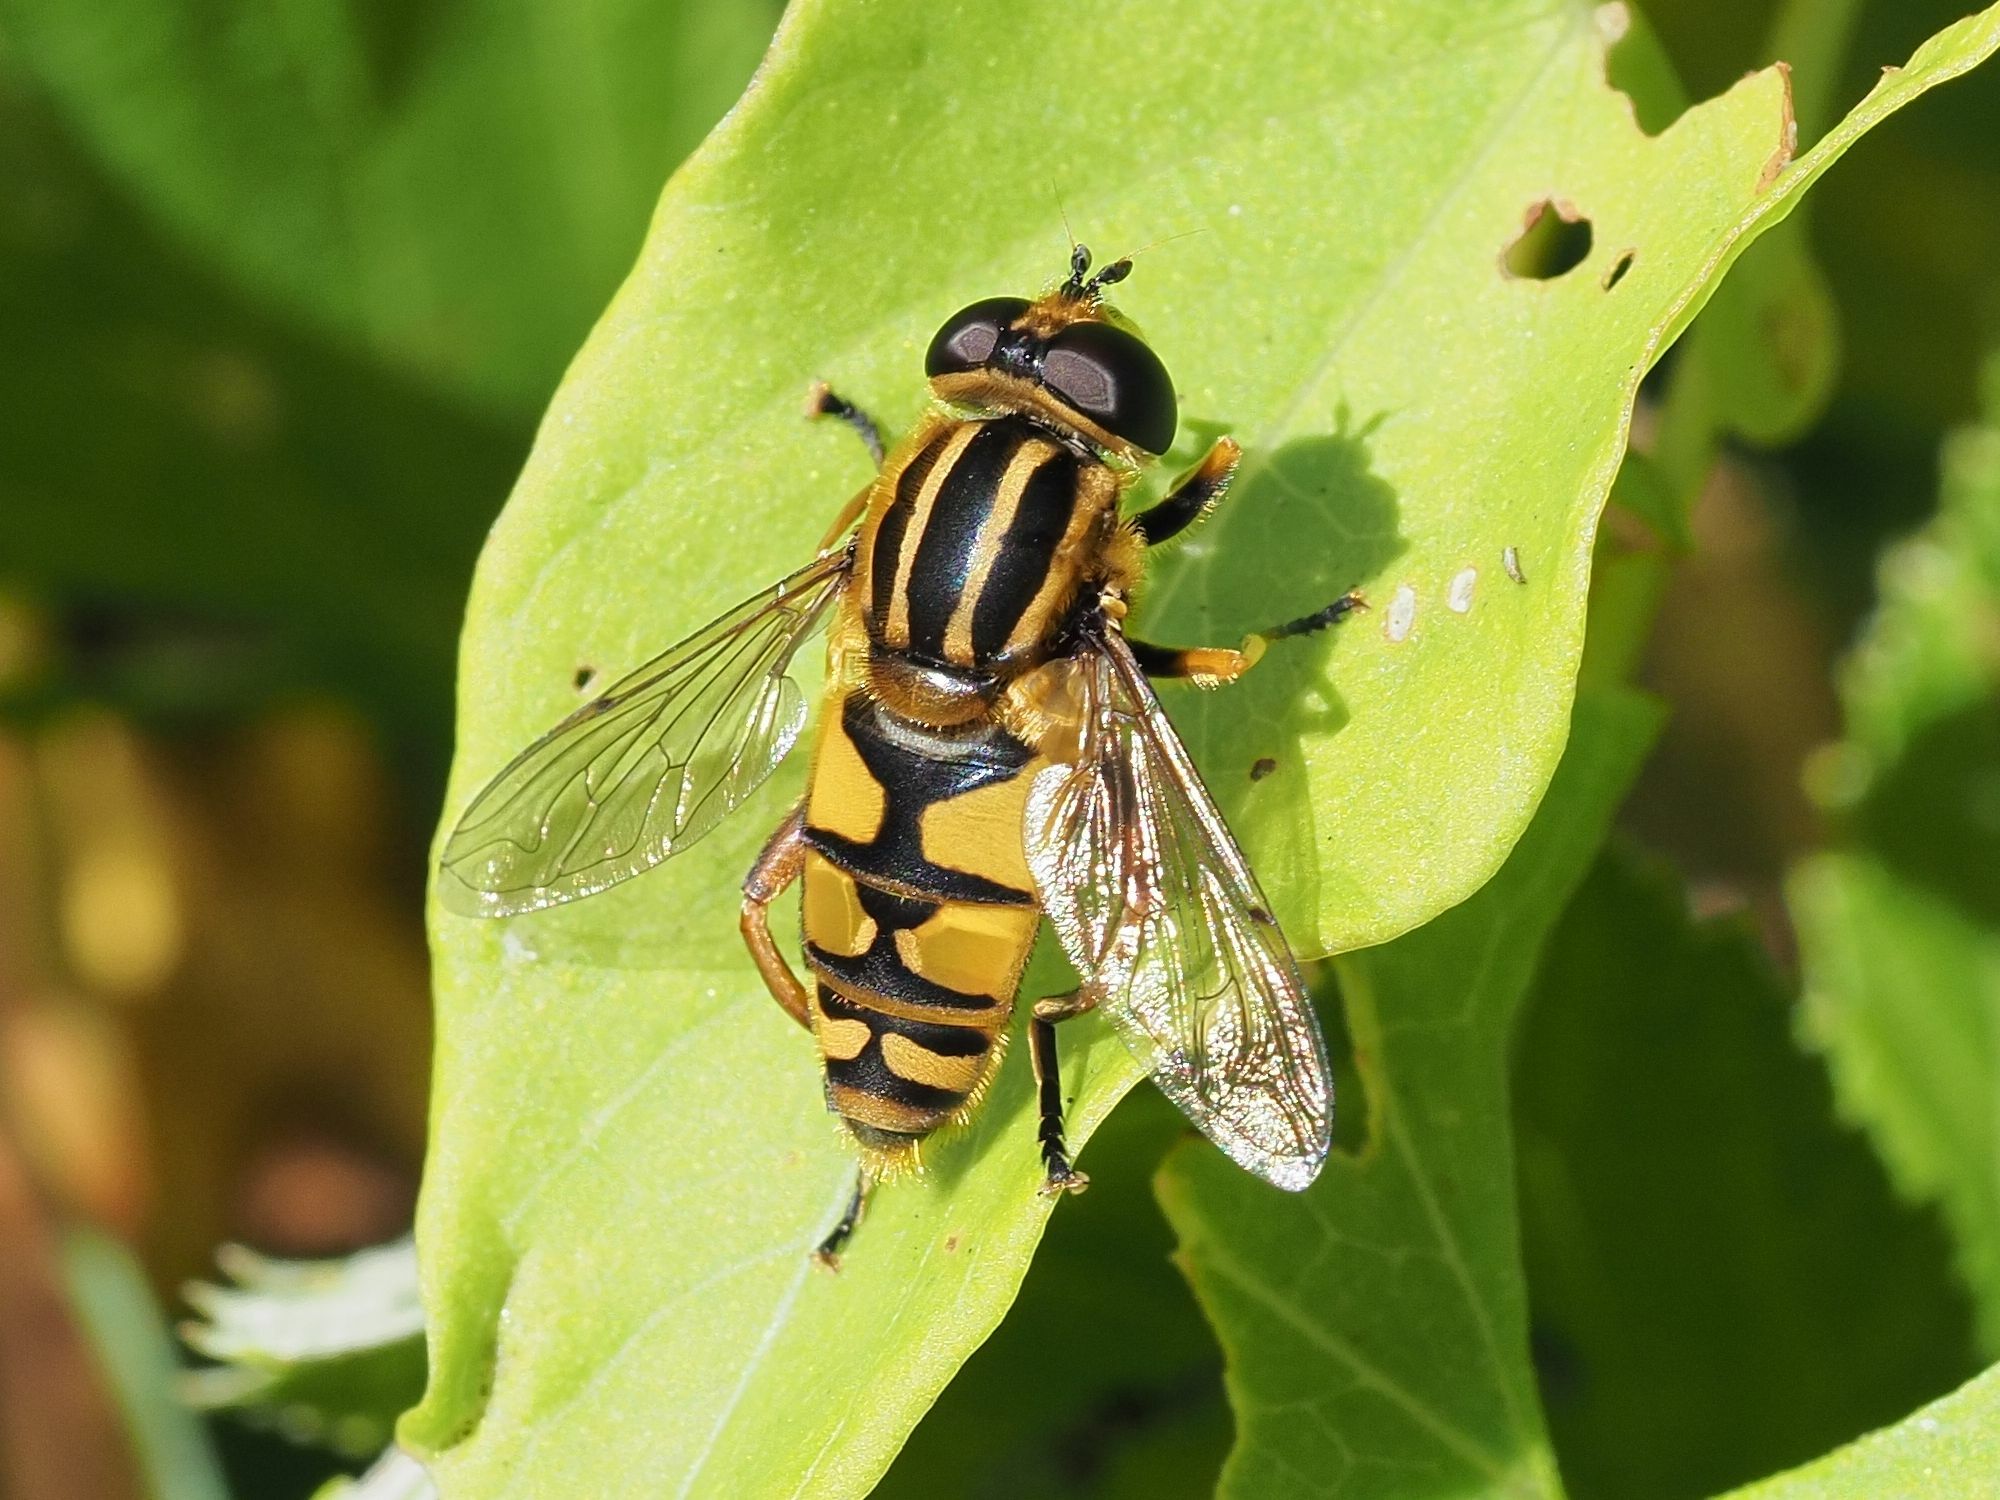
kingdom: Animalia
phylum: Arthropoda
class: Insecta
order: Diptera
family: Syrphidae
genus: Helophilus
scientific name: Helophilus pendulus
